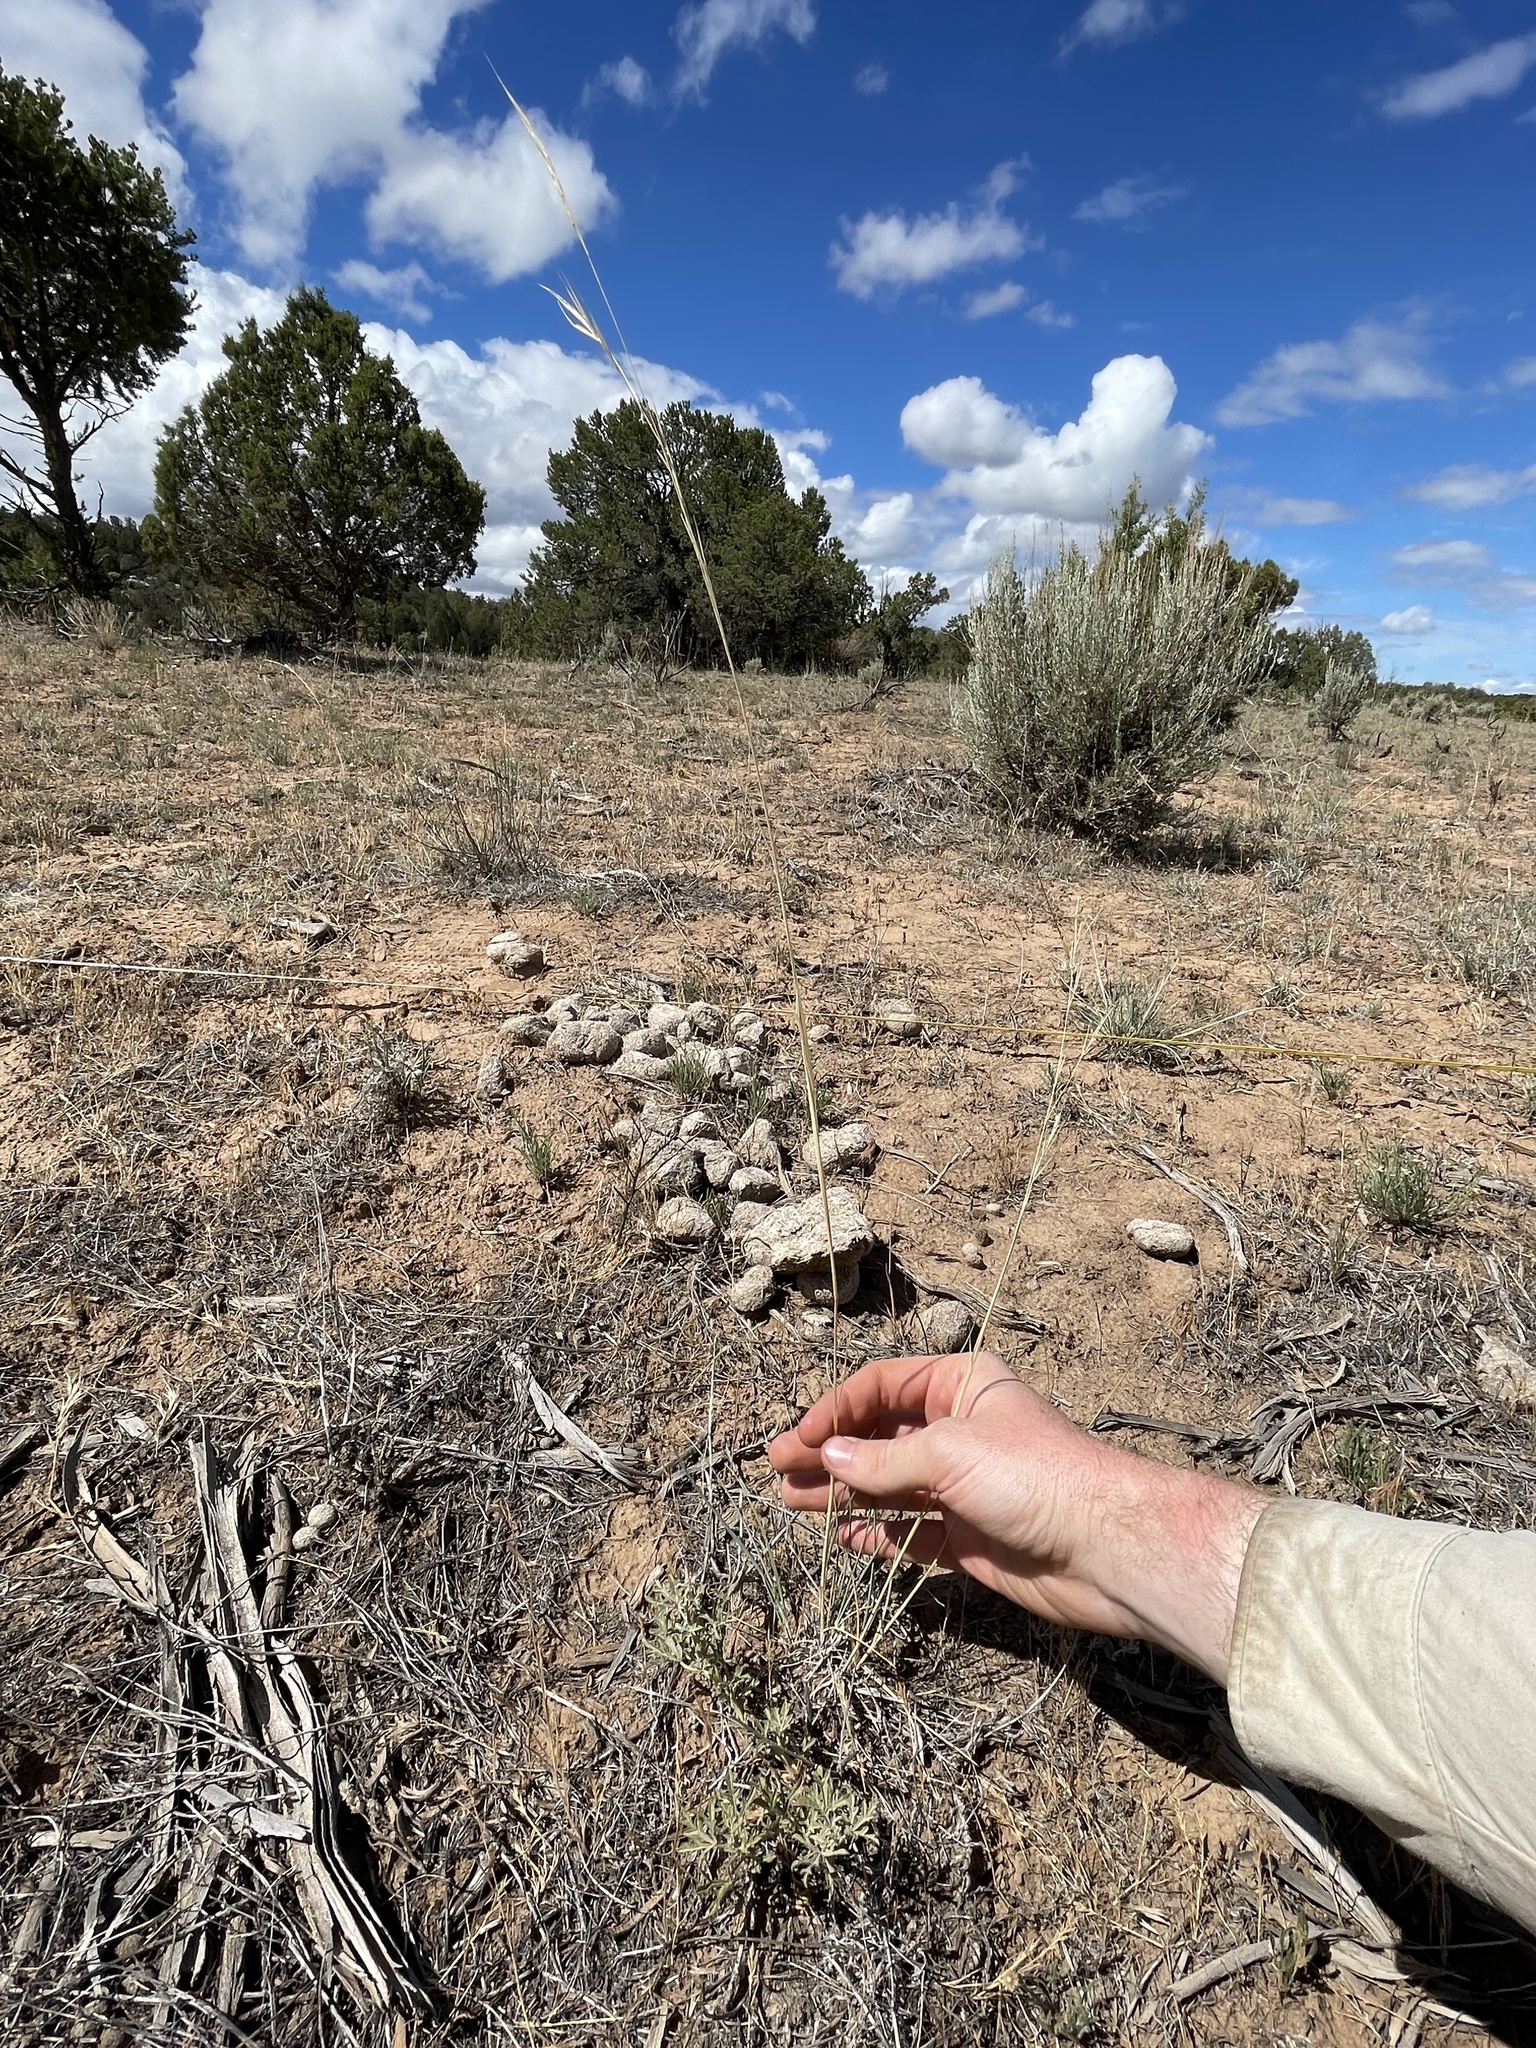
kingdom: Plantae
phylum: Tracheophyta
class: Liliopsida
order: Poales
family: Poaceae
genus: Hesperostipa
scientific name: Hesperostipa comata
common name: Needle-and-thread grass
